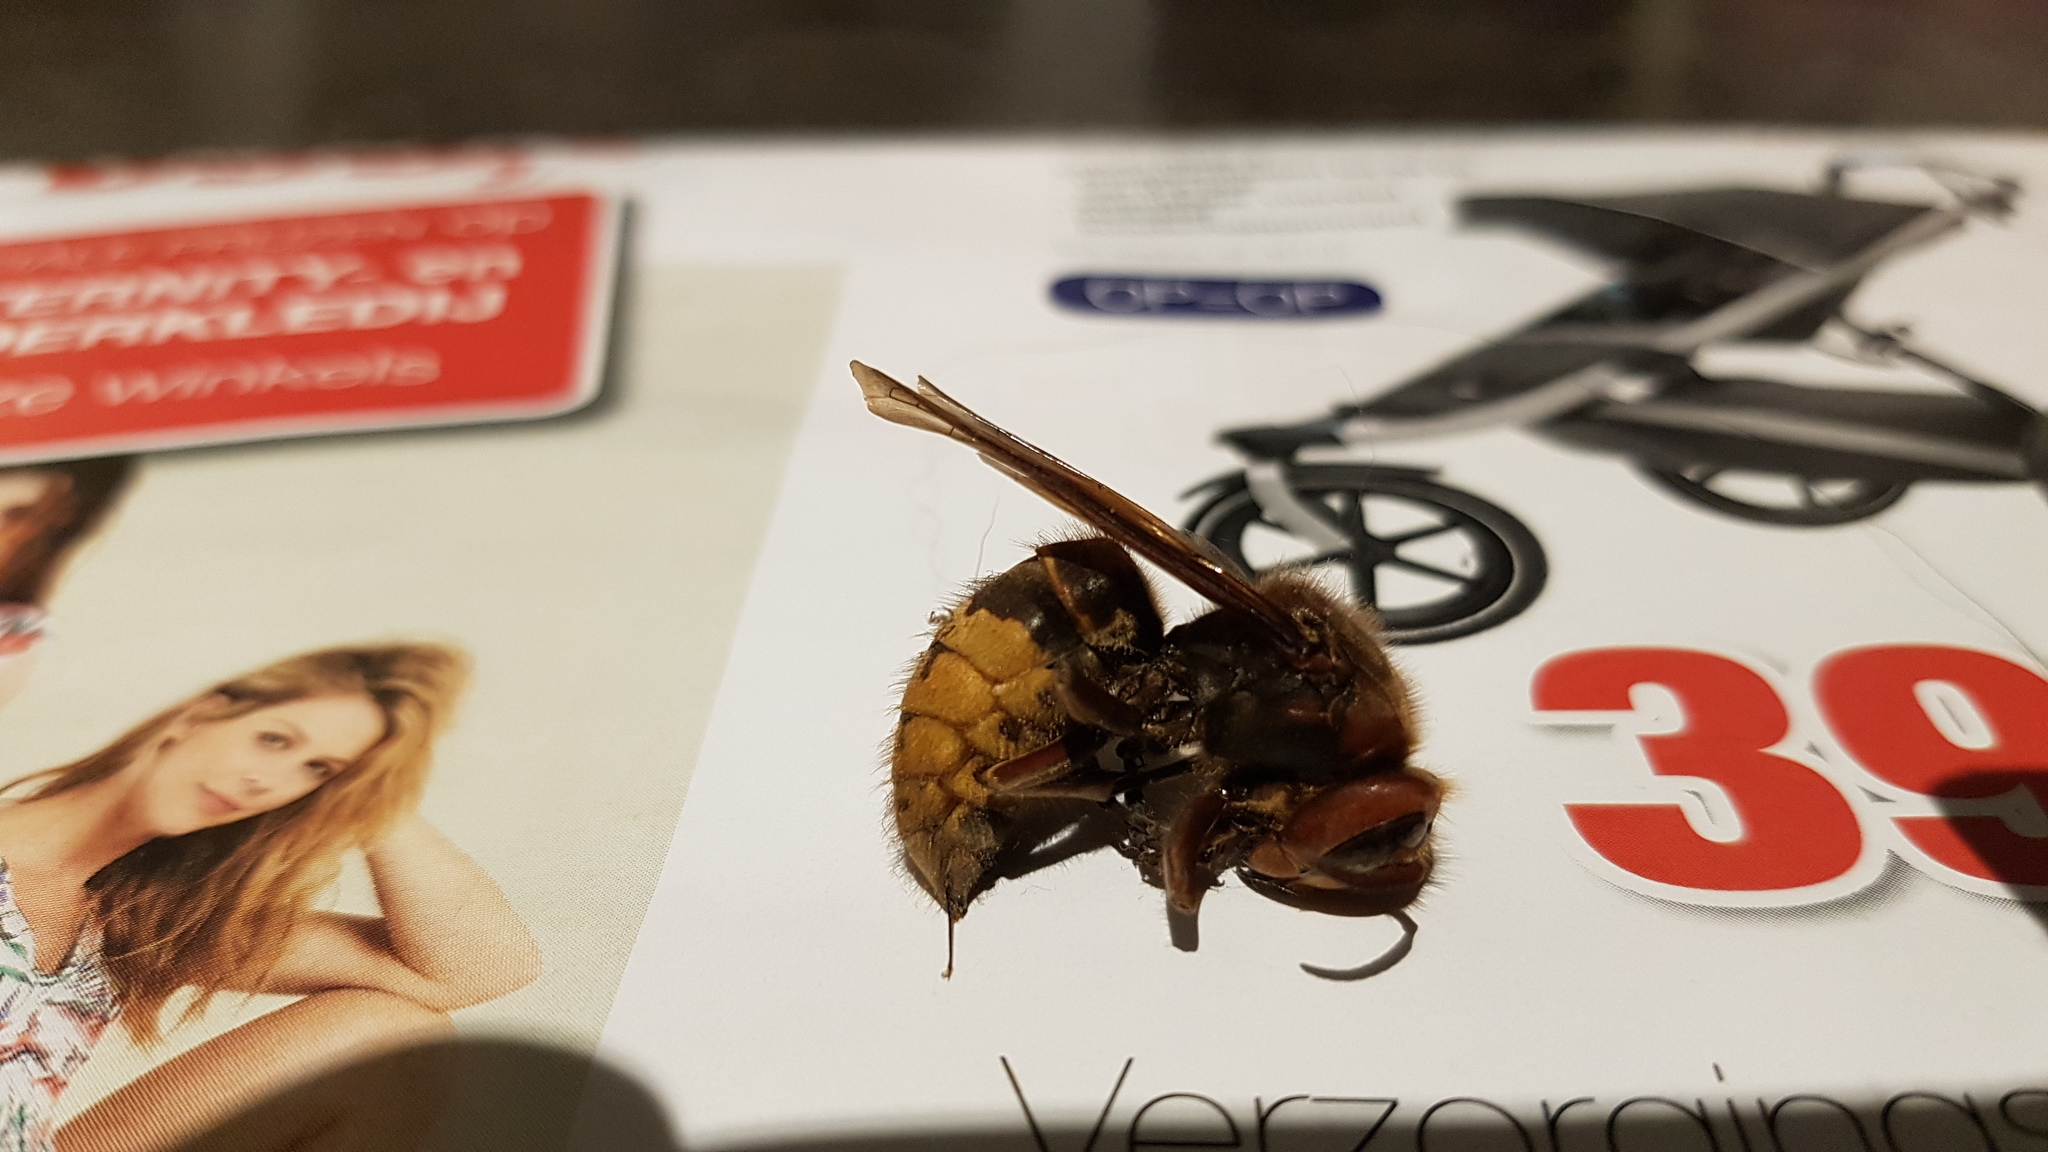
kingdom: Animalia
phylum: Arthropoda
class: Insecta
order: Hymenoptera
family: Vespidae
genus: Vespa
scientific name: Vespa crabro
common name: Hornet
